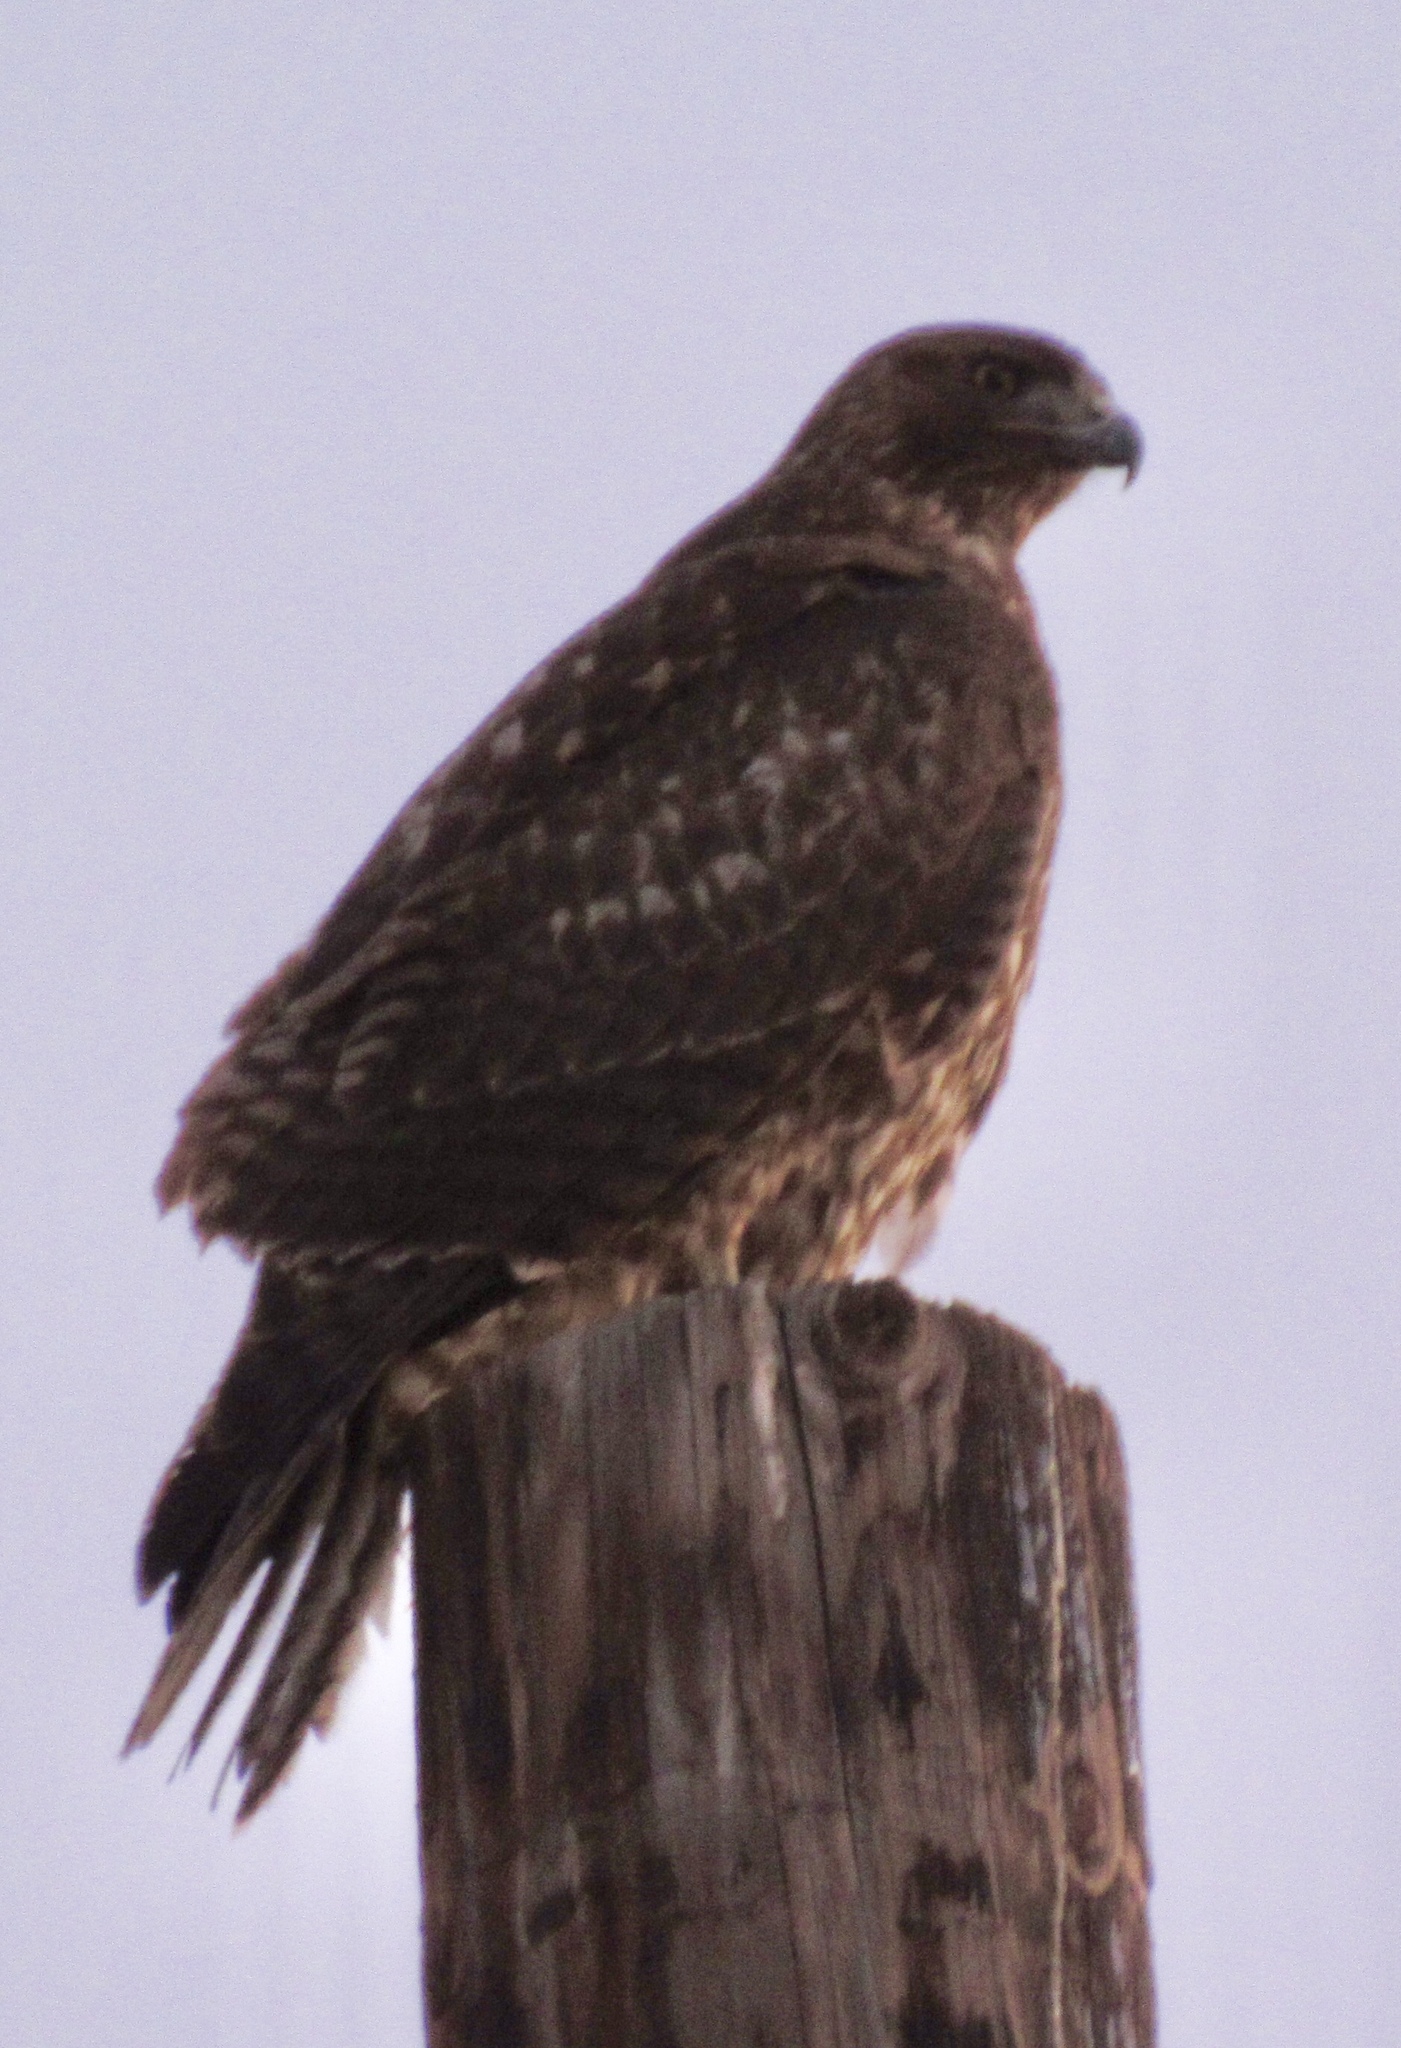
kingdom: Animalia
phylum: Chordata
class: Aves
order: Accipitriformes
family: Accipitridae
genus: Buteo
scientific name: Buteo jamaicensis
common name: Red-tailed hawk
